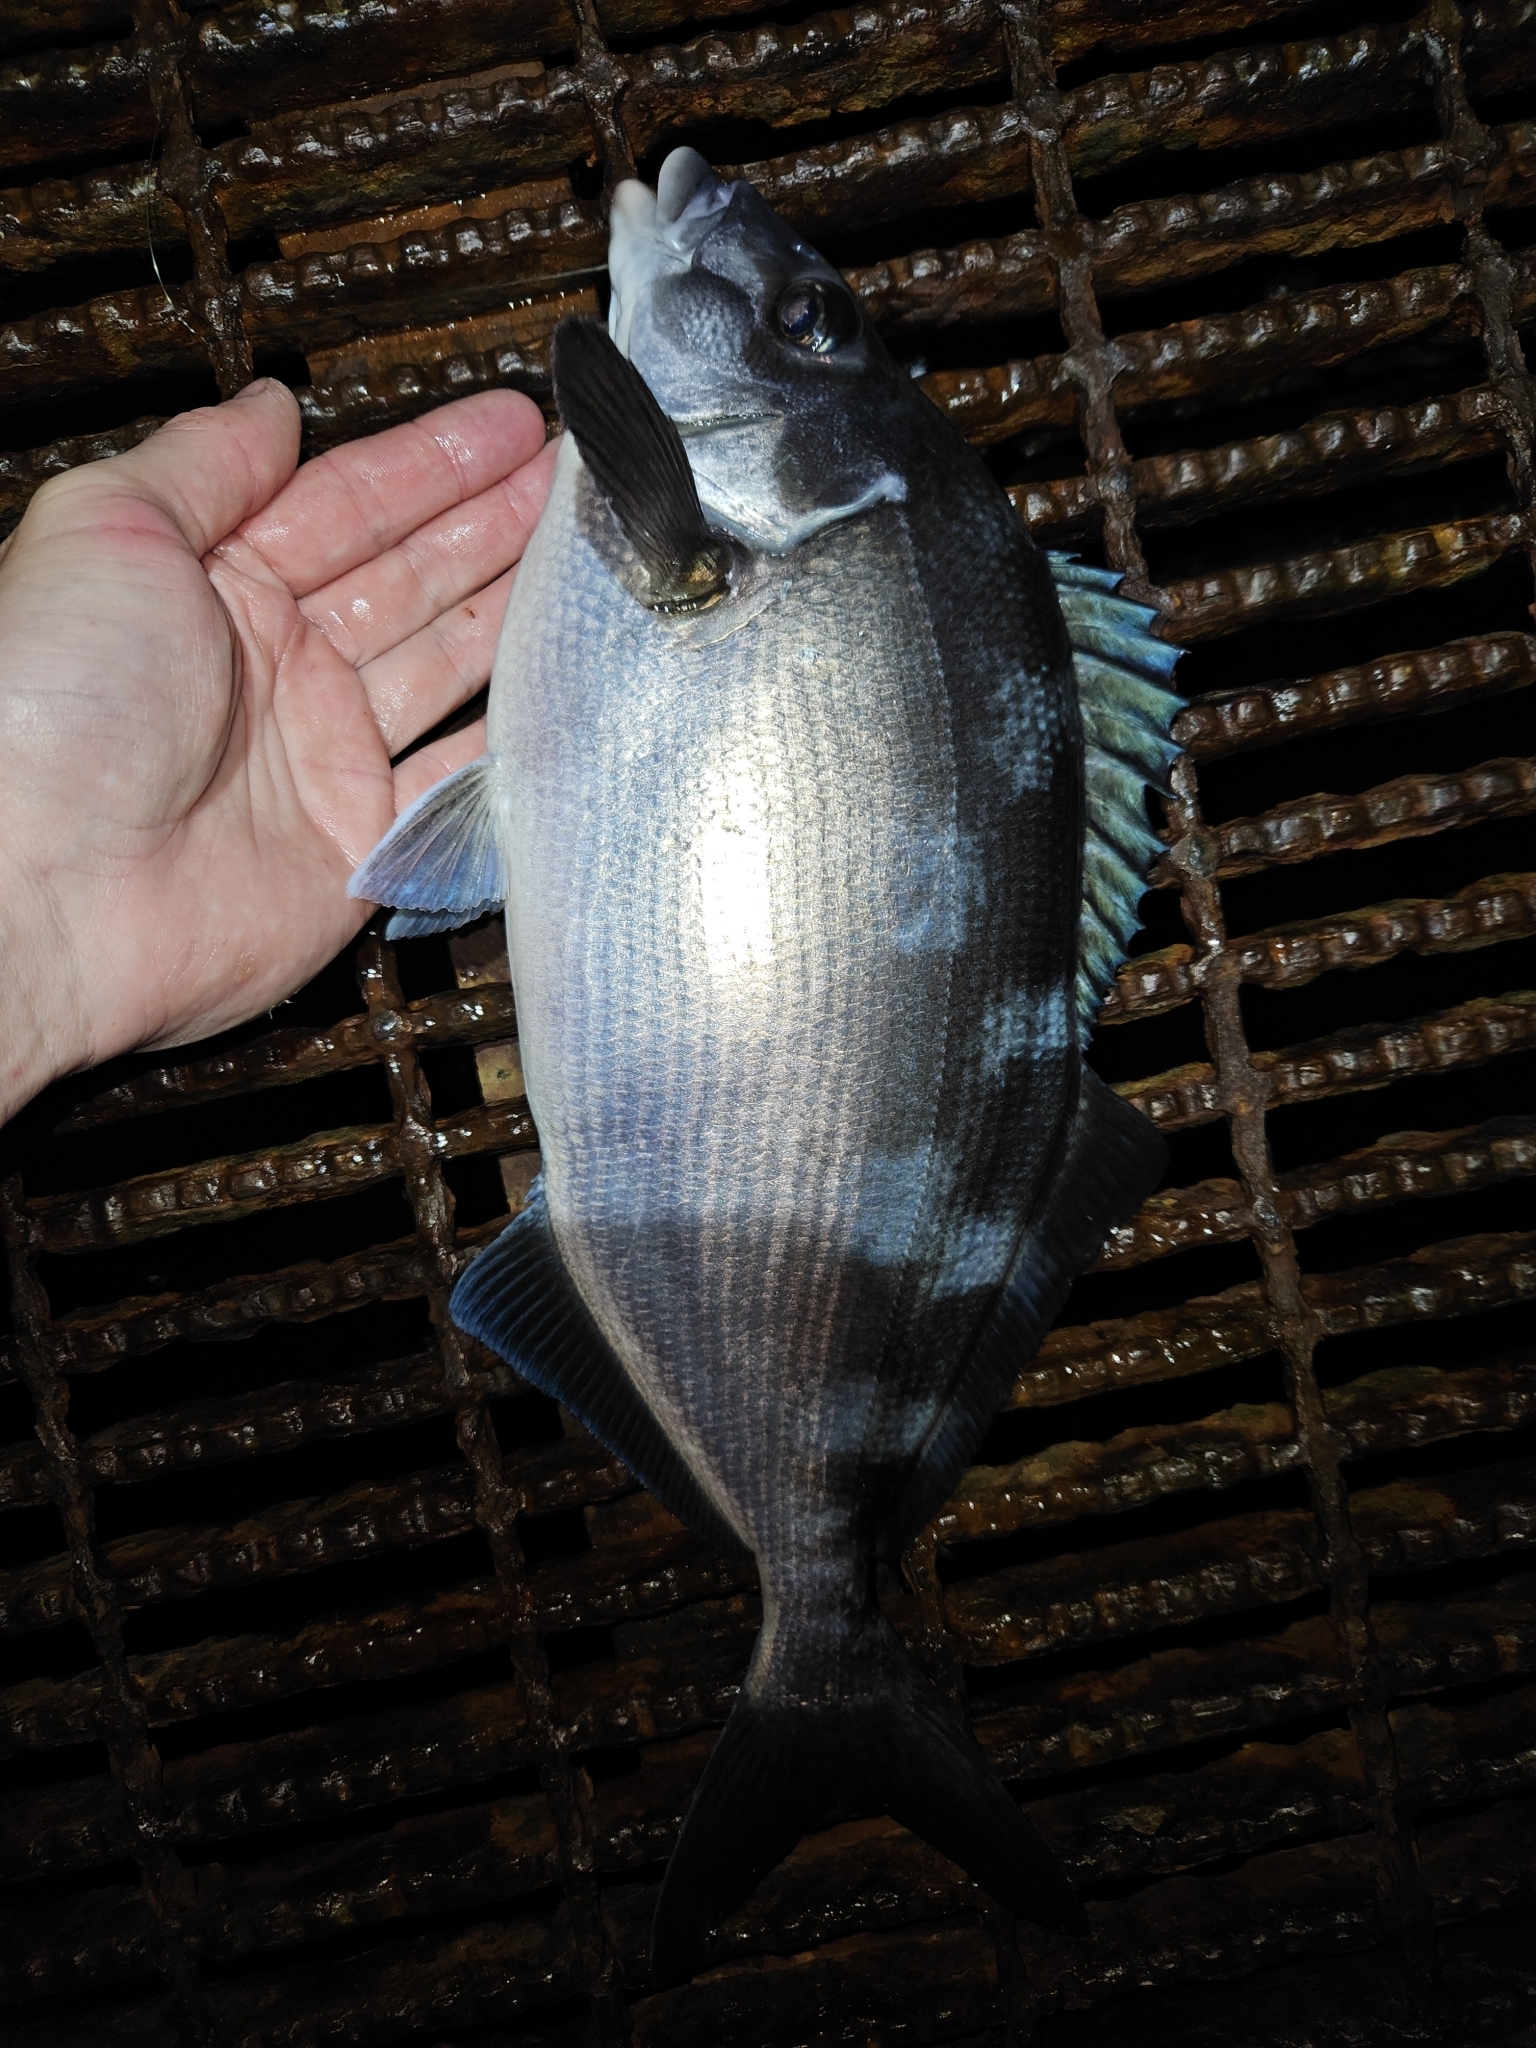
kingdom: Animalia
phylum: Chordata
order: Perciformes
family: Latridae
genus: Latridopsis
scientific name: Latridopsis ciliaris
